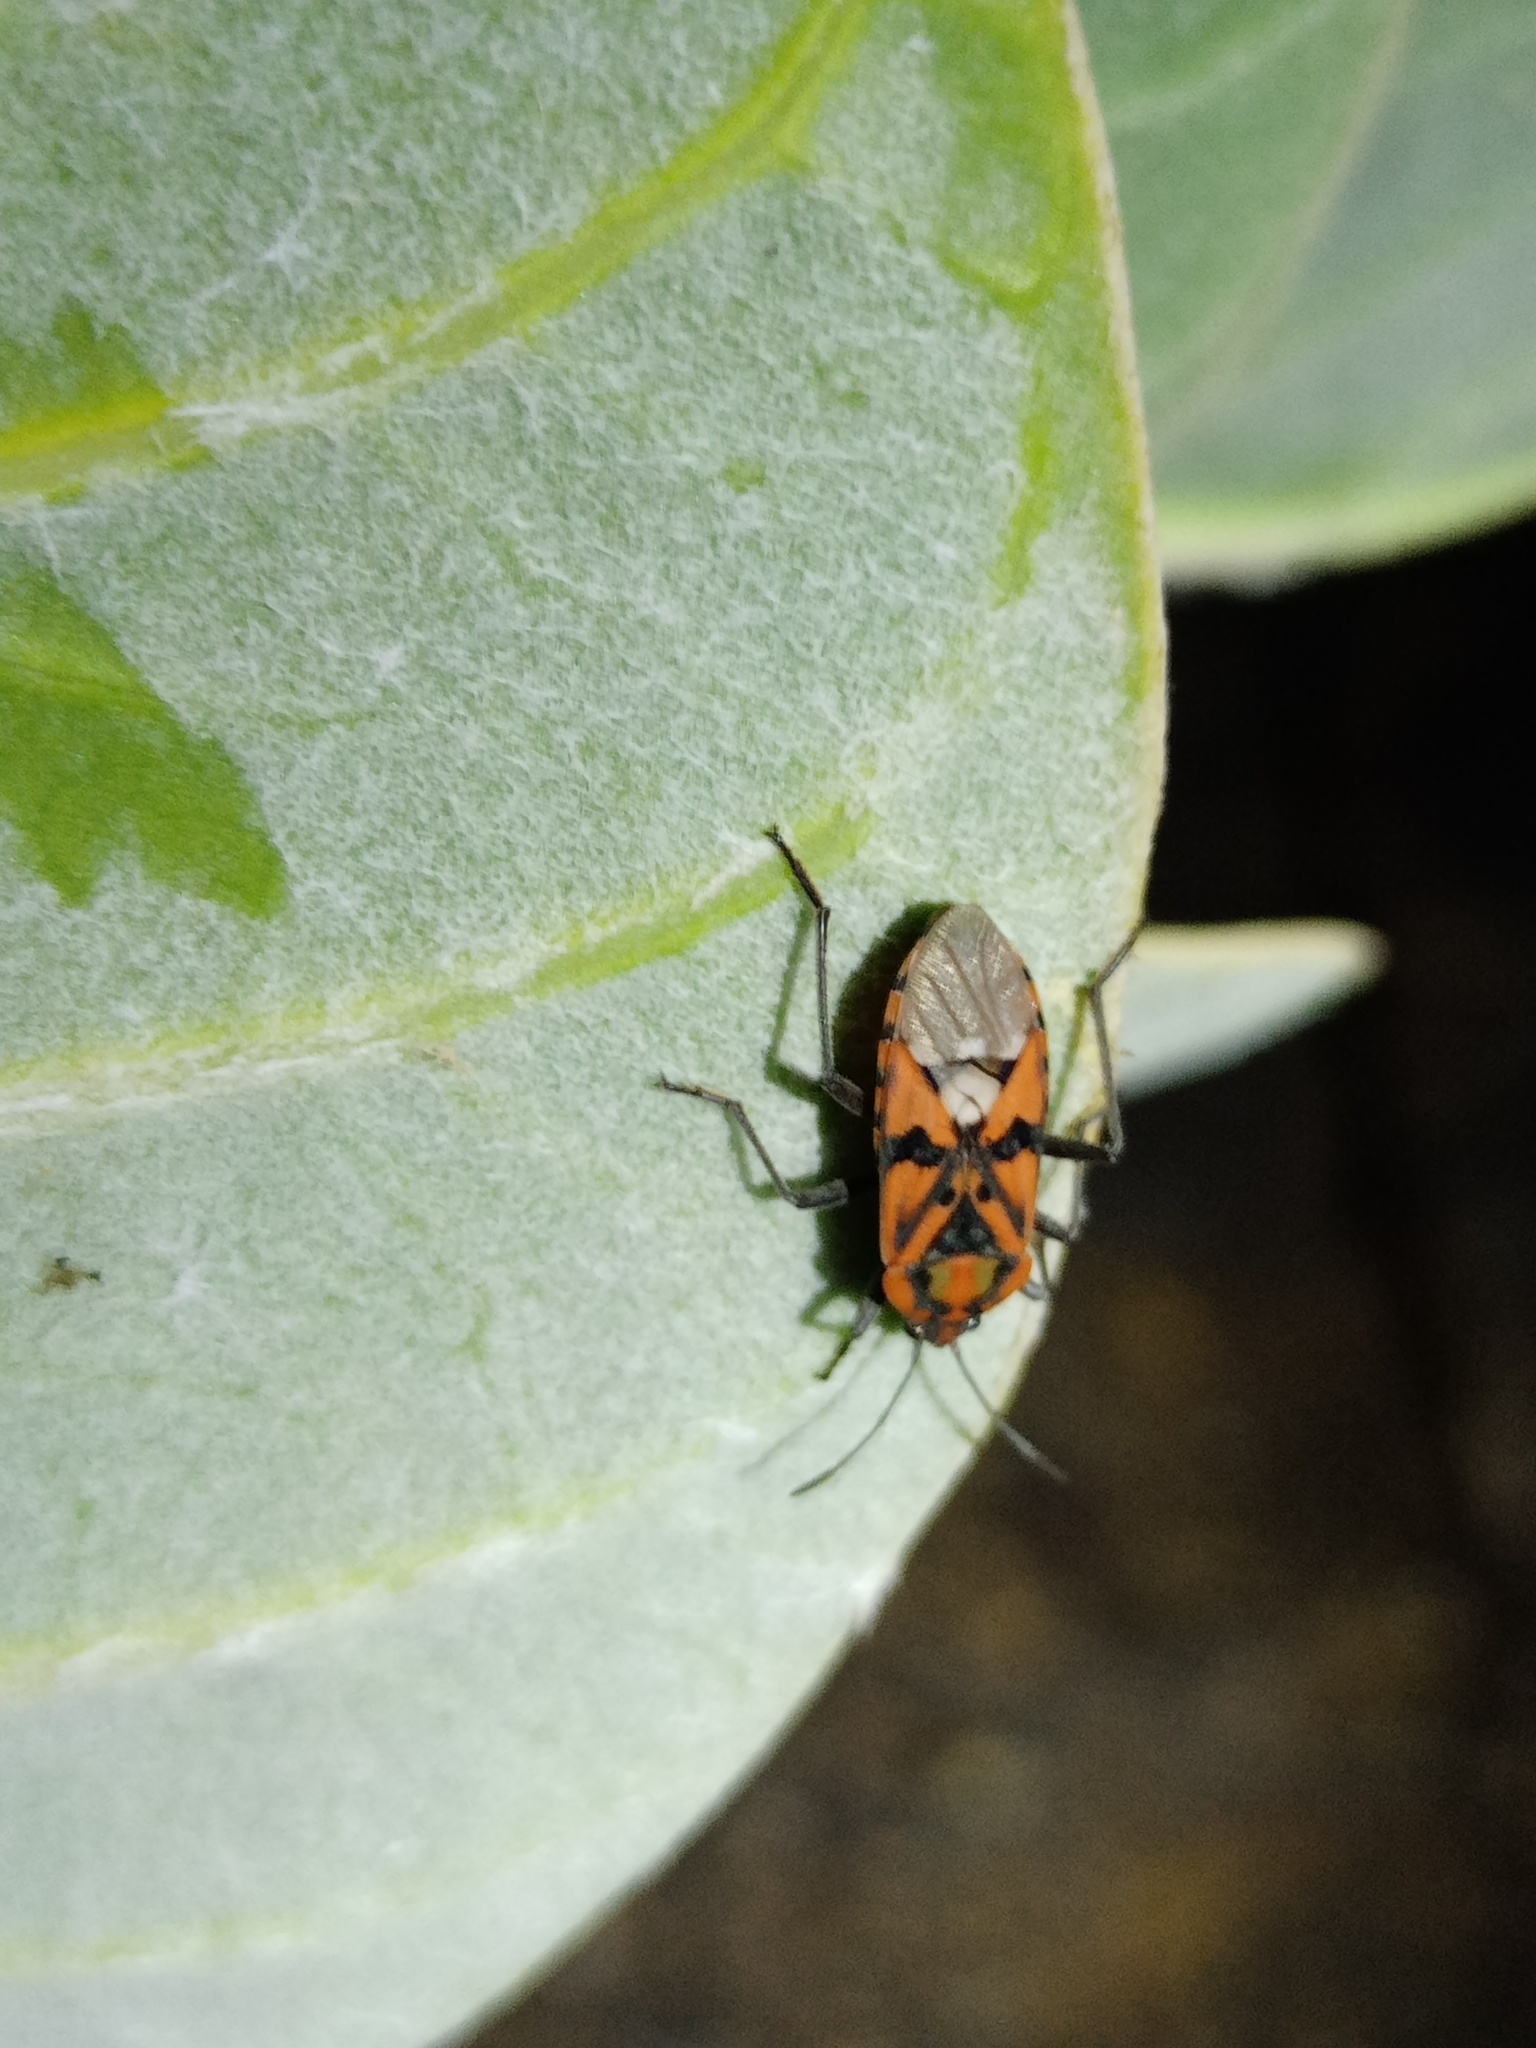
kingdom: Animalia
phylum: Arthropoda
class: Insecta
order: Hemiptera
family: Lygaeidae
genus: Spilostethus
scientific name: Spilostethus pandurus
